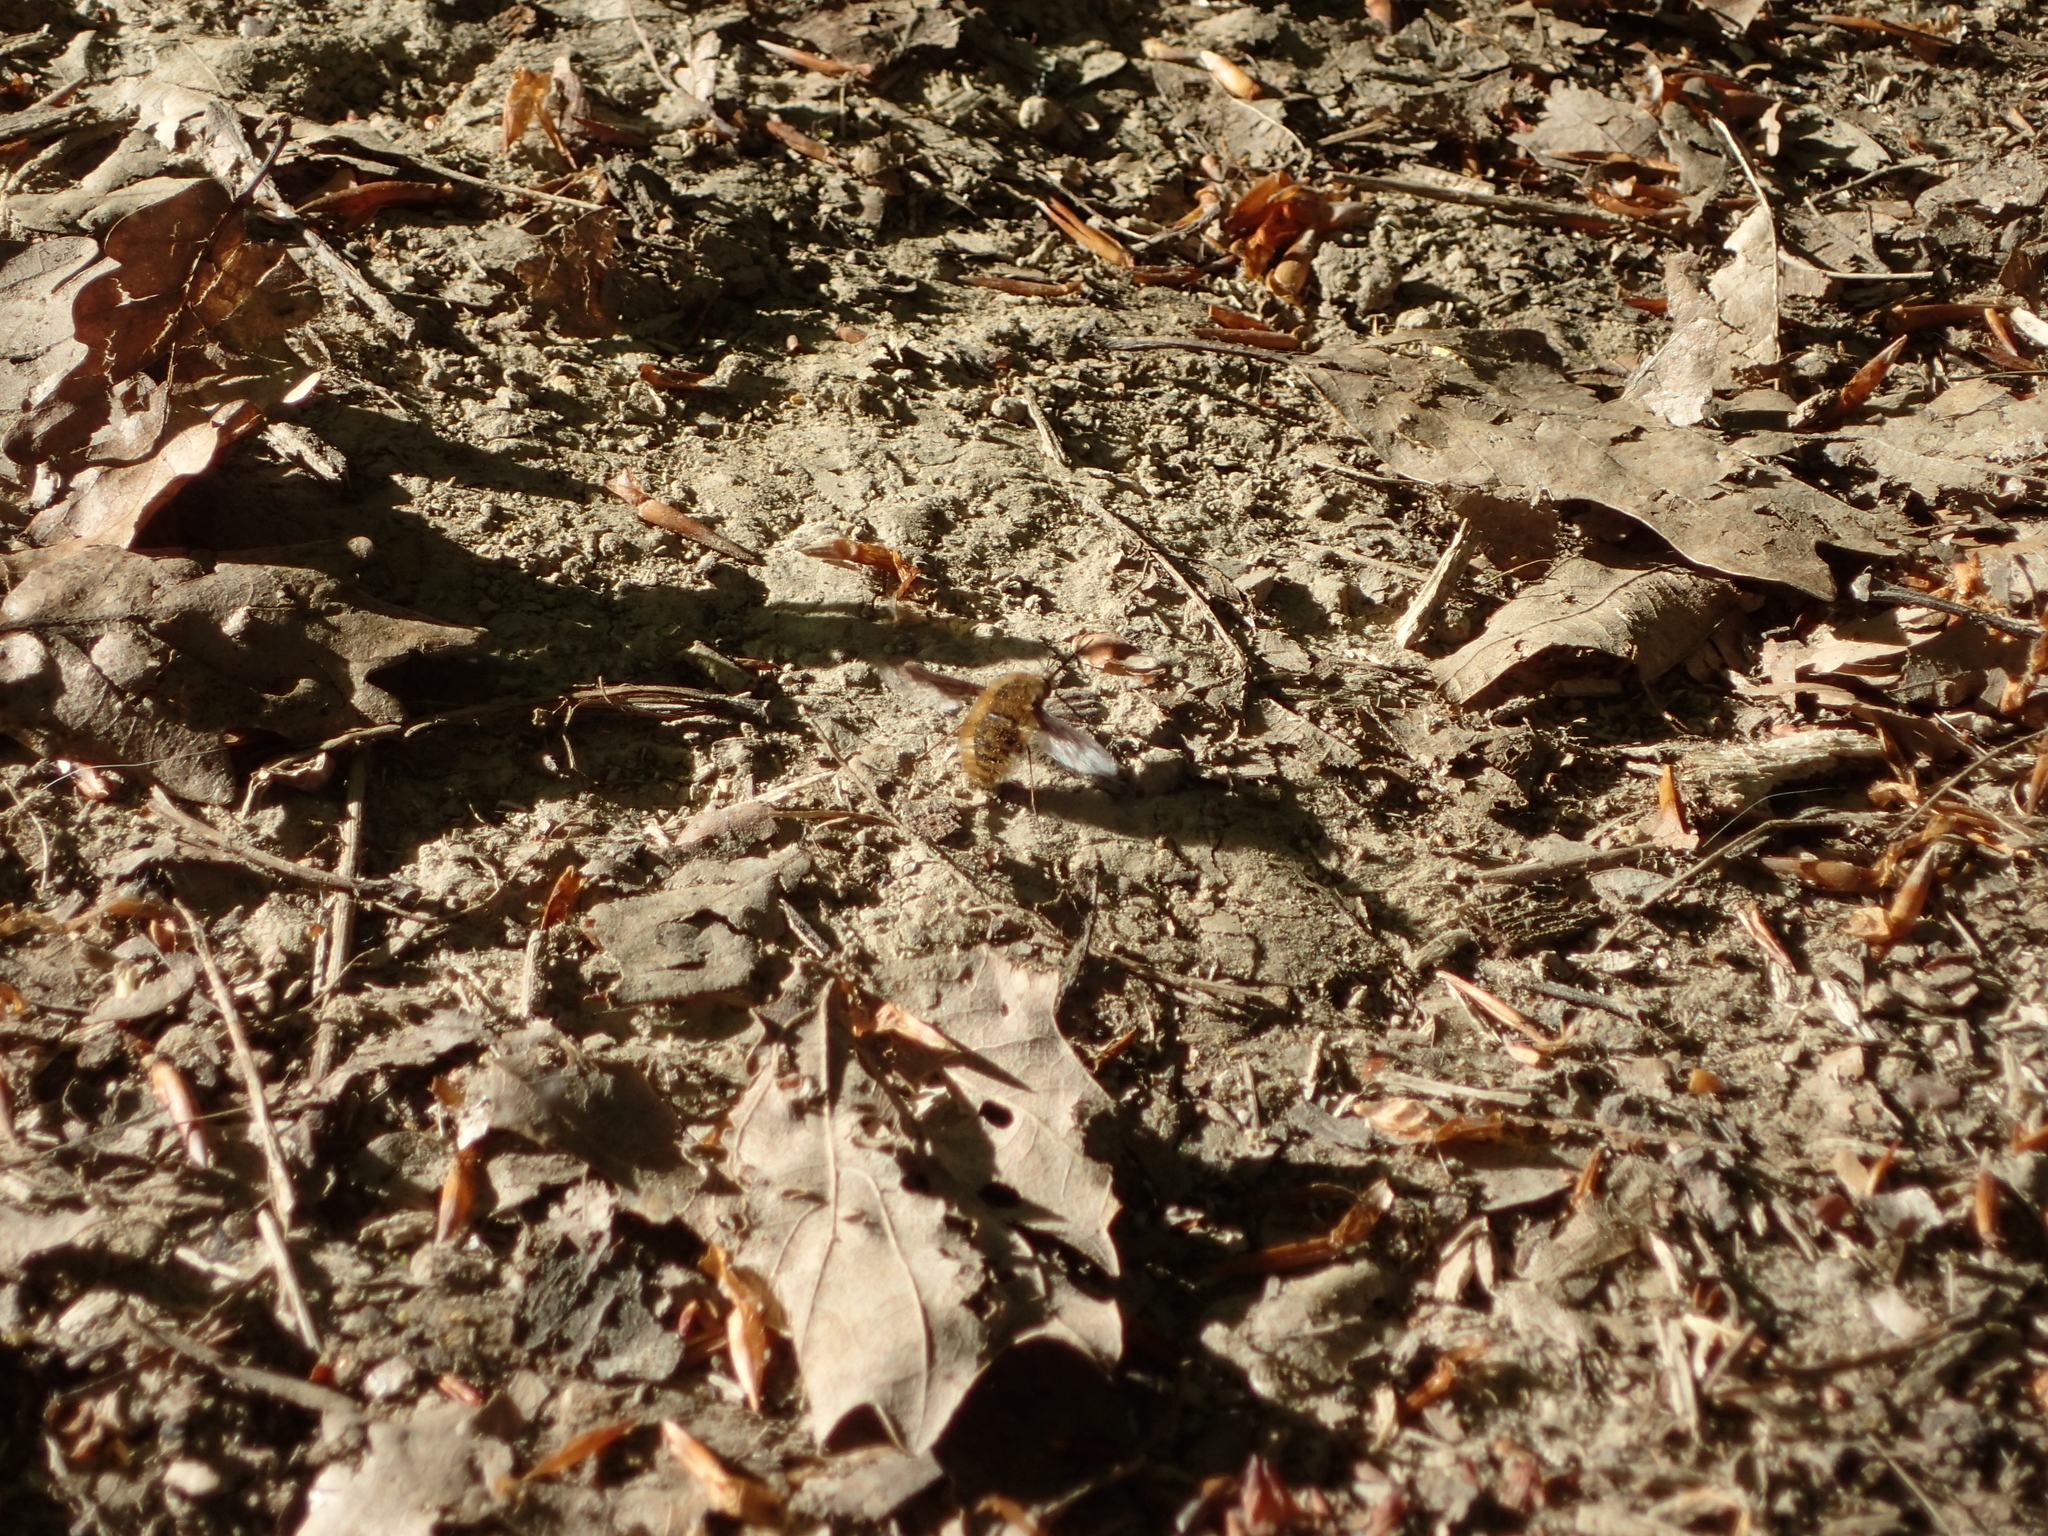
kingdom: Animalia
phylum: Arthropoda
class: Insecta
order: Diptera
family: Bombyliidae
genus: Bombylius
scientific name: Bombylius major
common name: Bee fly
